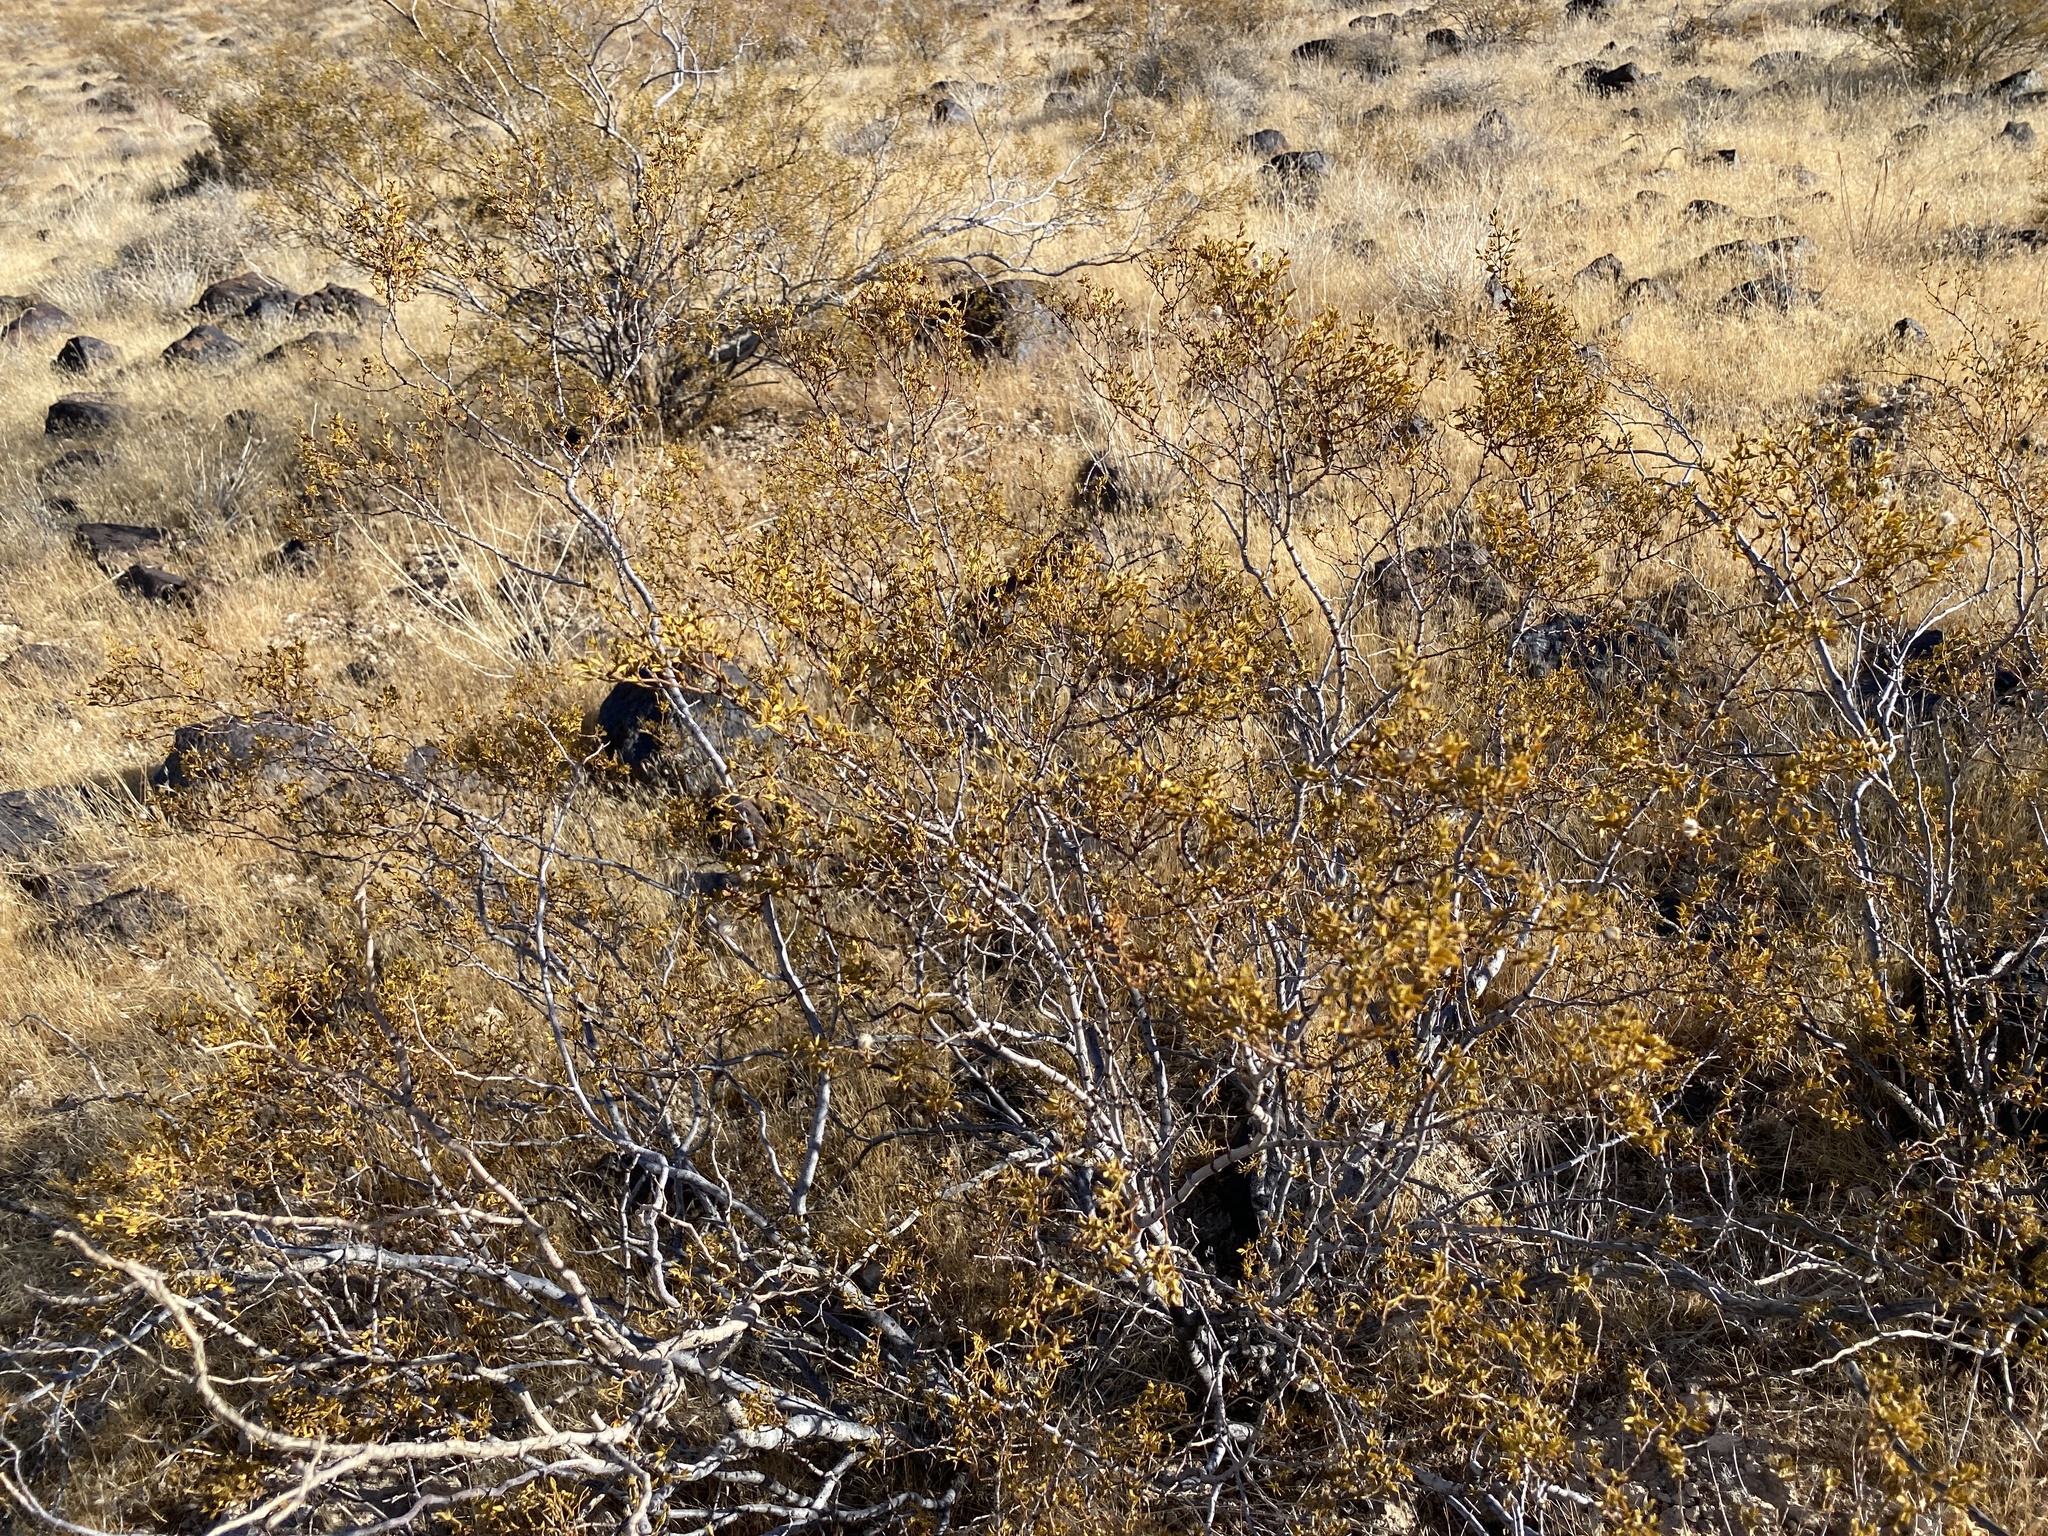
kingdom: Plantae
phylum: Tracheophyta
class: Magnoliopsida
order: Zygophyllales
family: Zygophyllaceae
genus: Larrea
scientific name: Larrea tridentata
